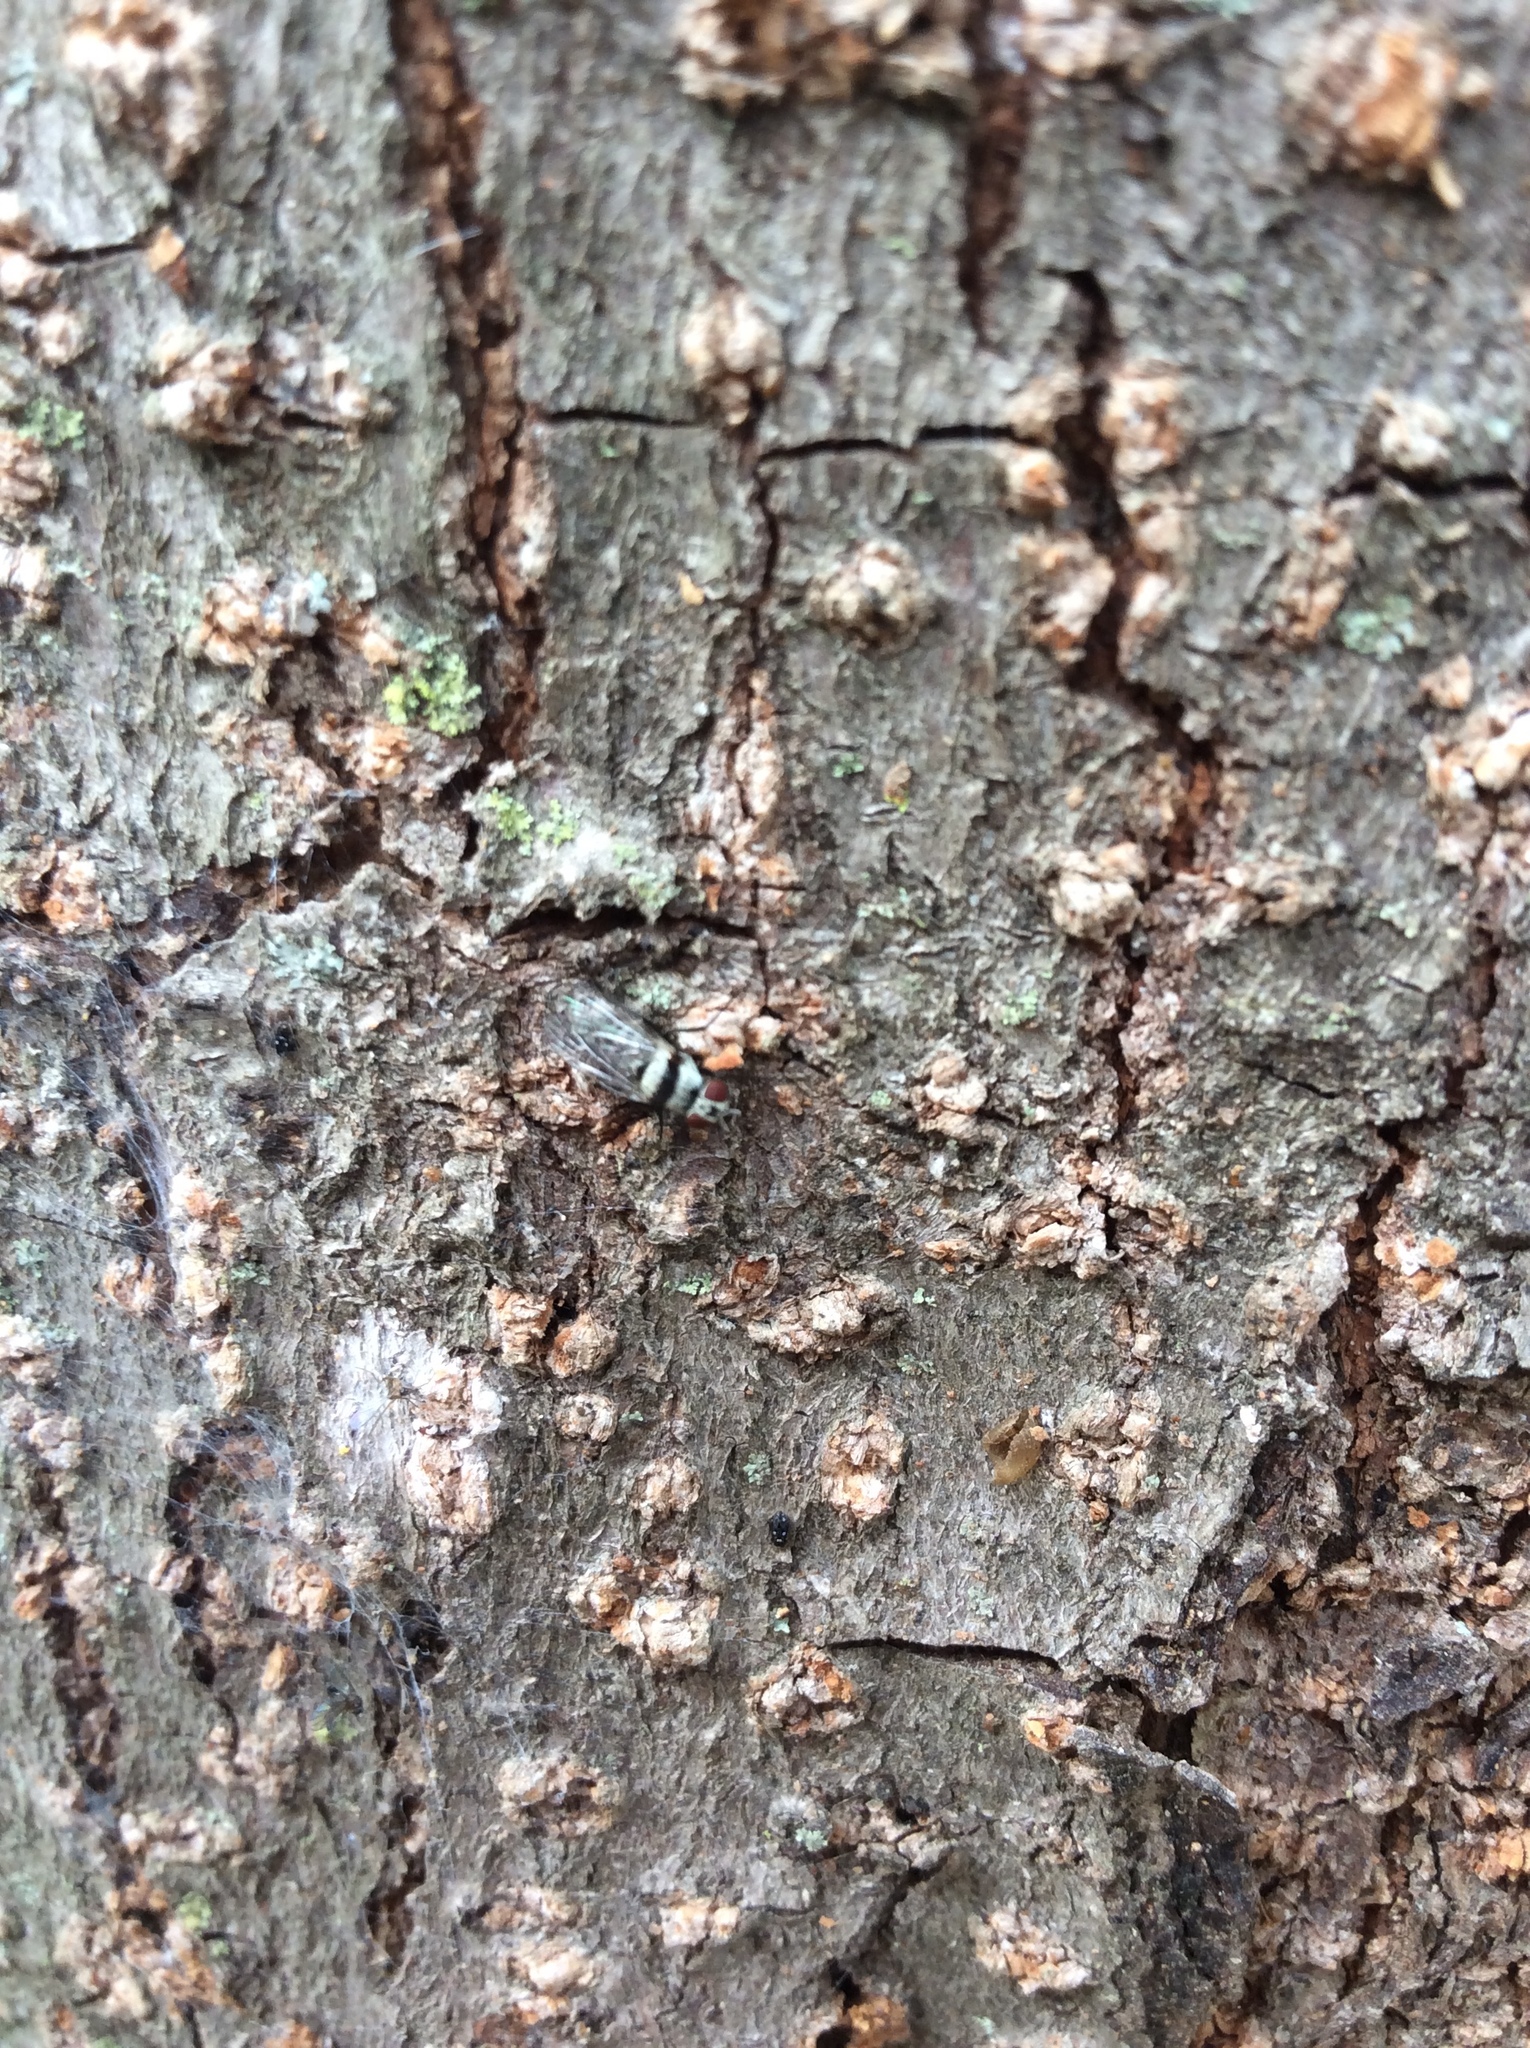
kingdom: Animalia
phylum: Arthropoda
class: Insecta
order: Diptera
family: Anthomyiidae
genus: Anthomyia
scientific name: Anthomyia illocata
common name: Fly
